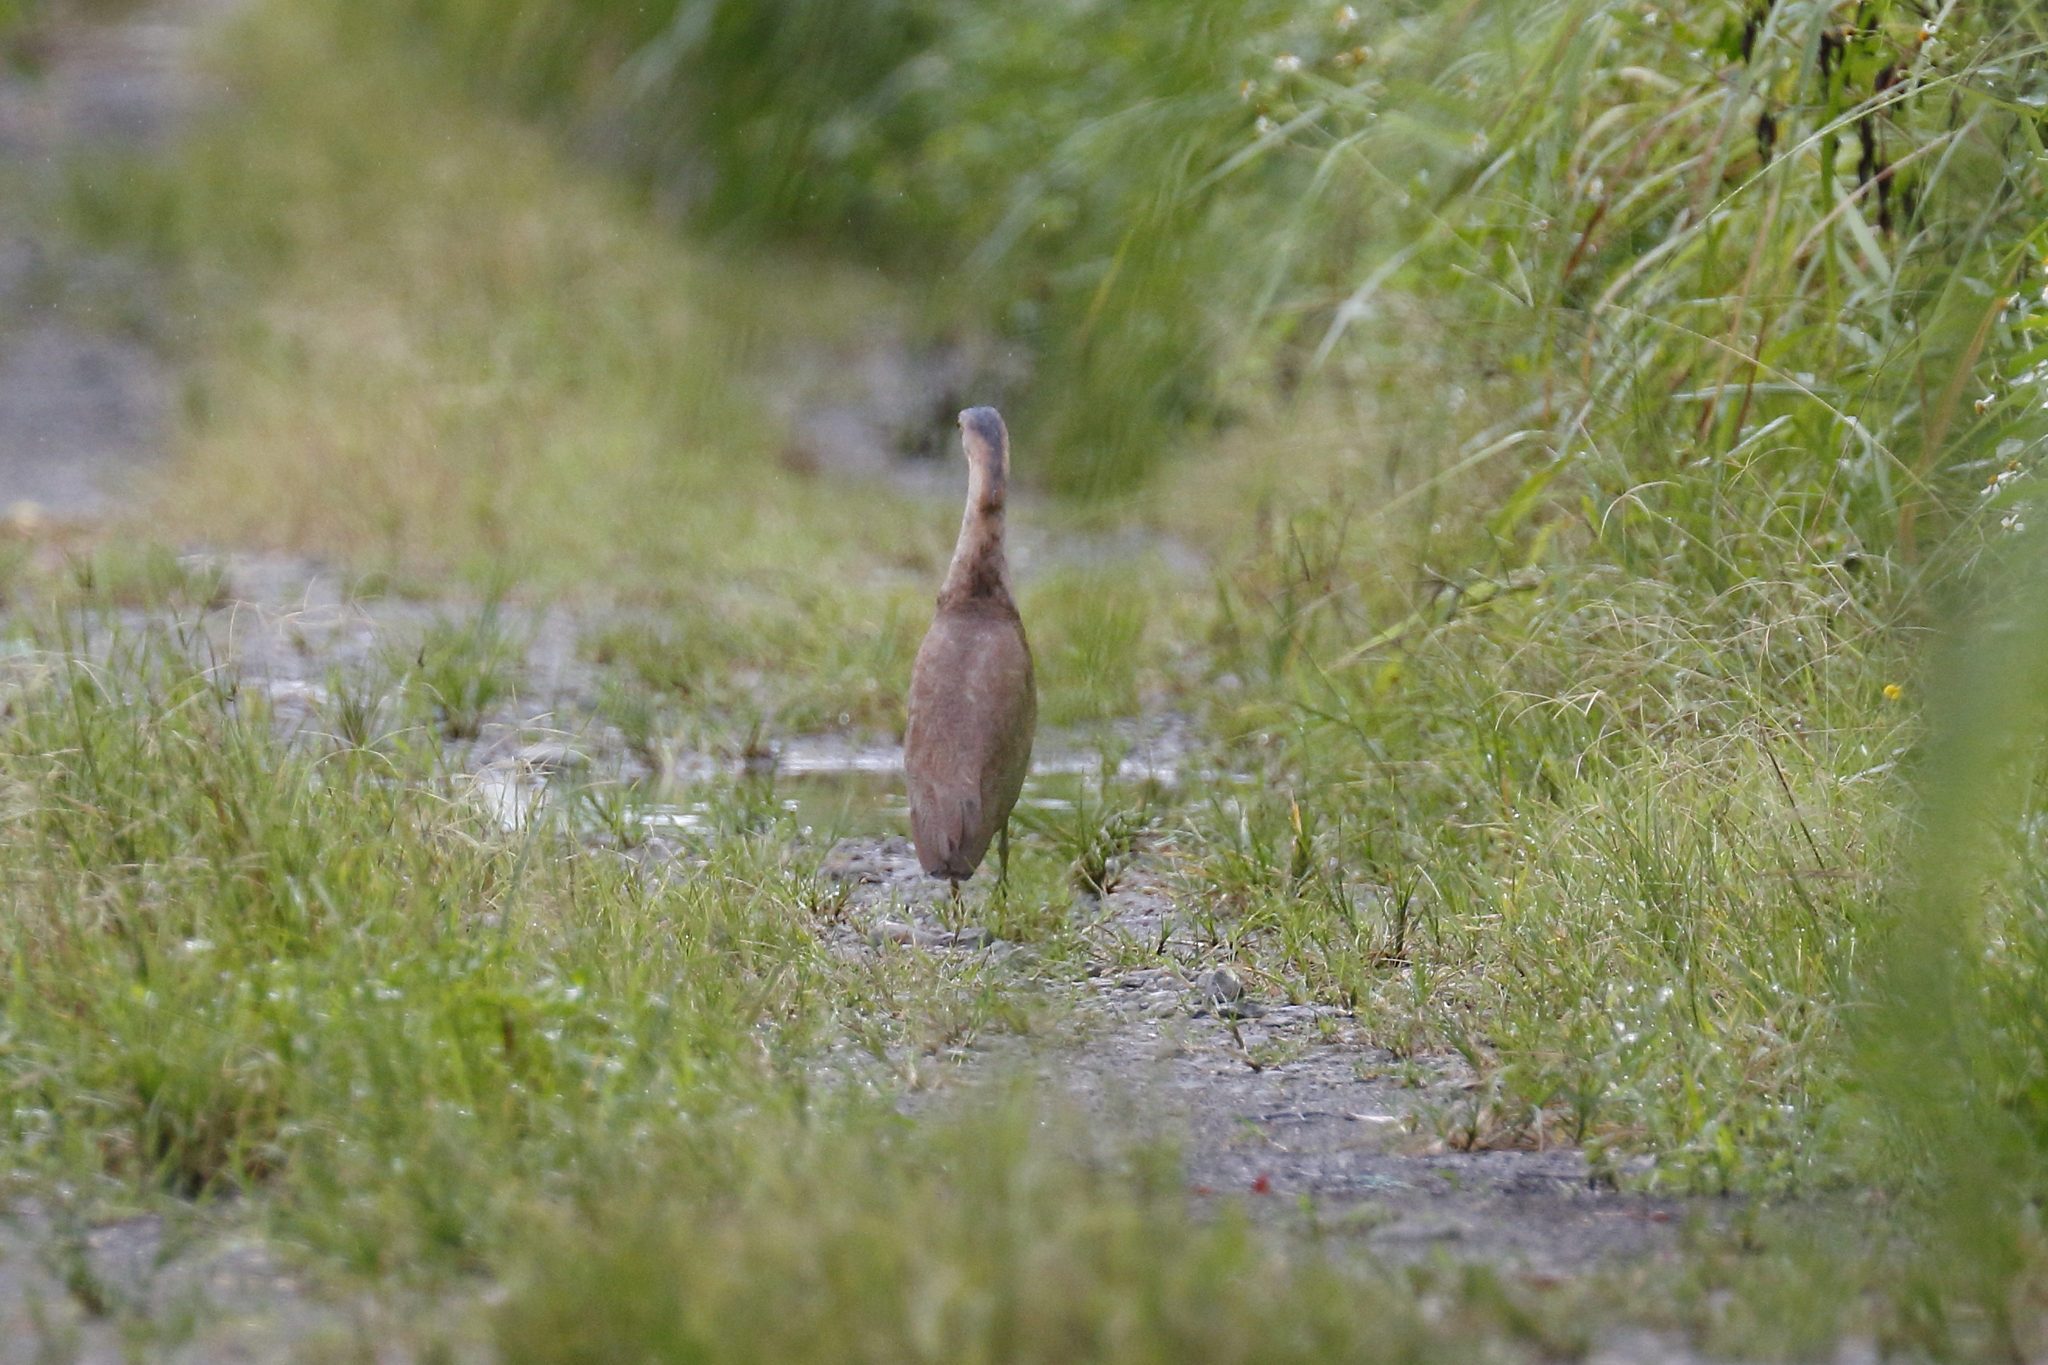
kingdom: Animalia
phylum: Chordata
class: Aves
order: Pelecaniformes
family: Ardeidae
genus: Gorsachius
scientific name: Gorsachius melanolophus
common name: Malayan night heron
